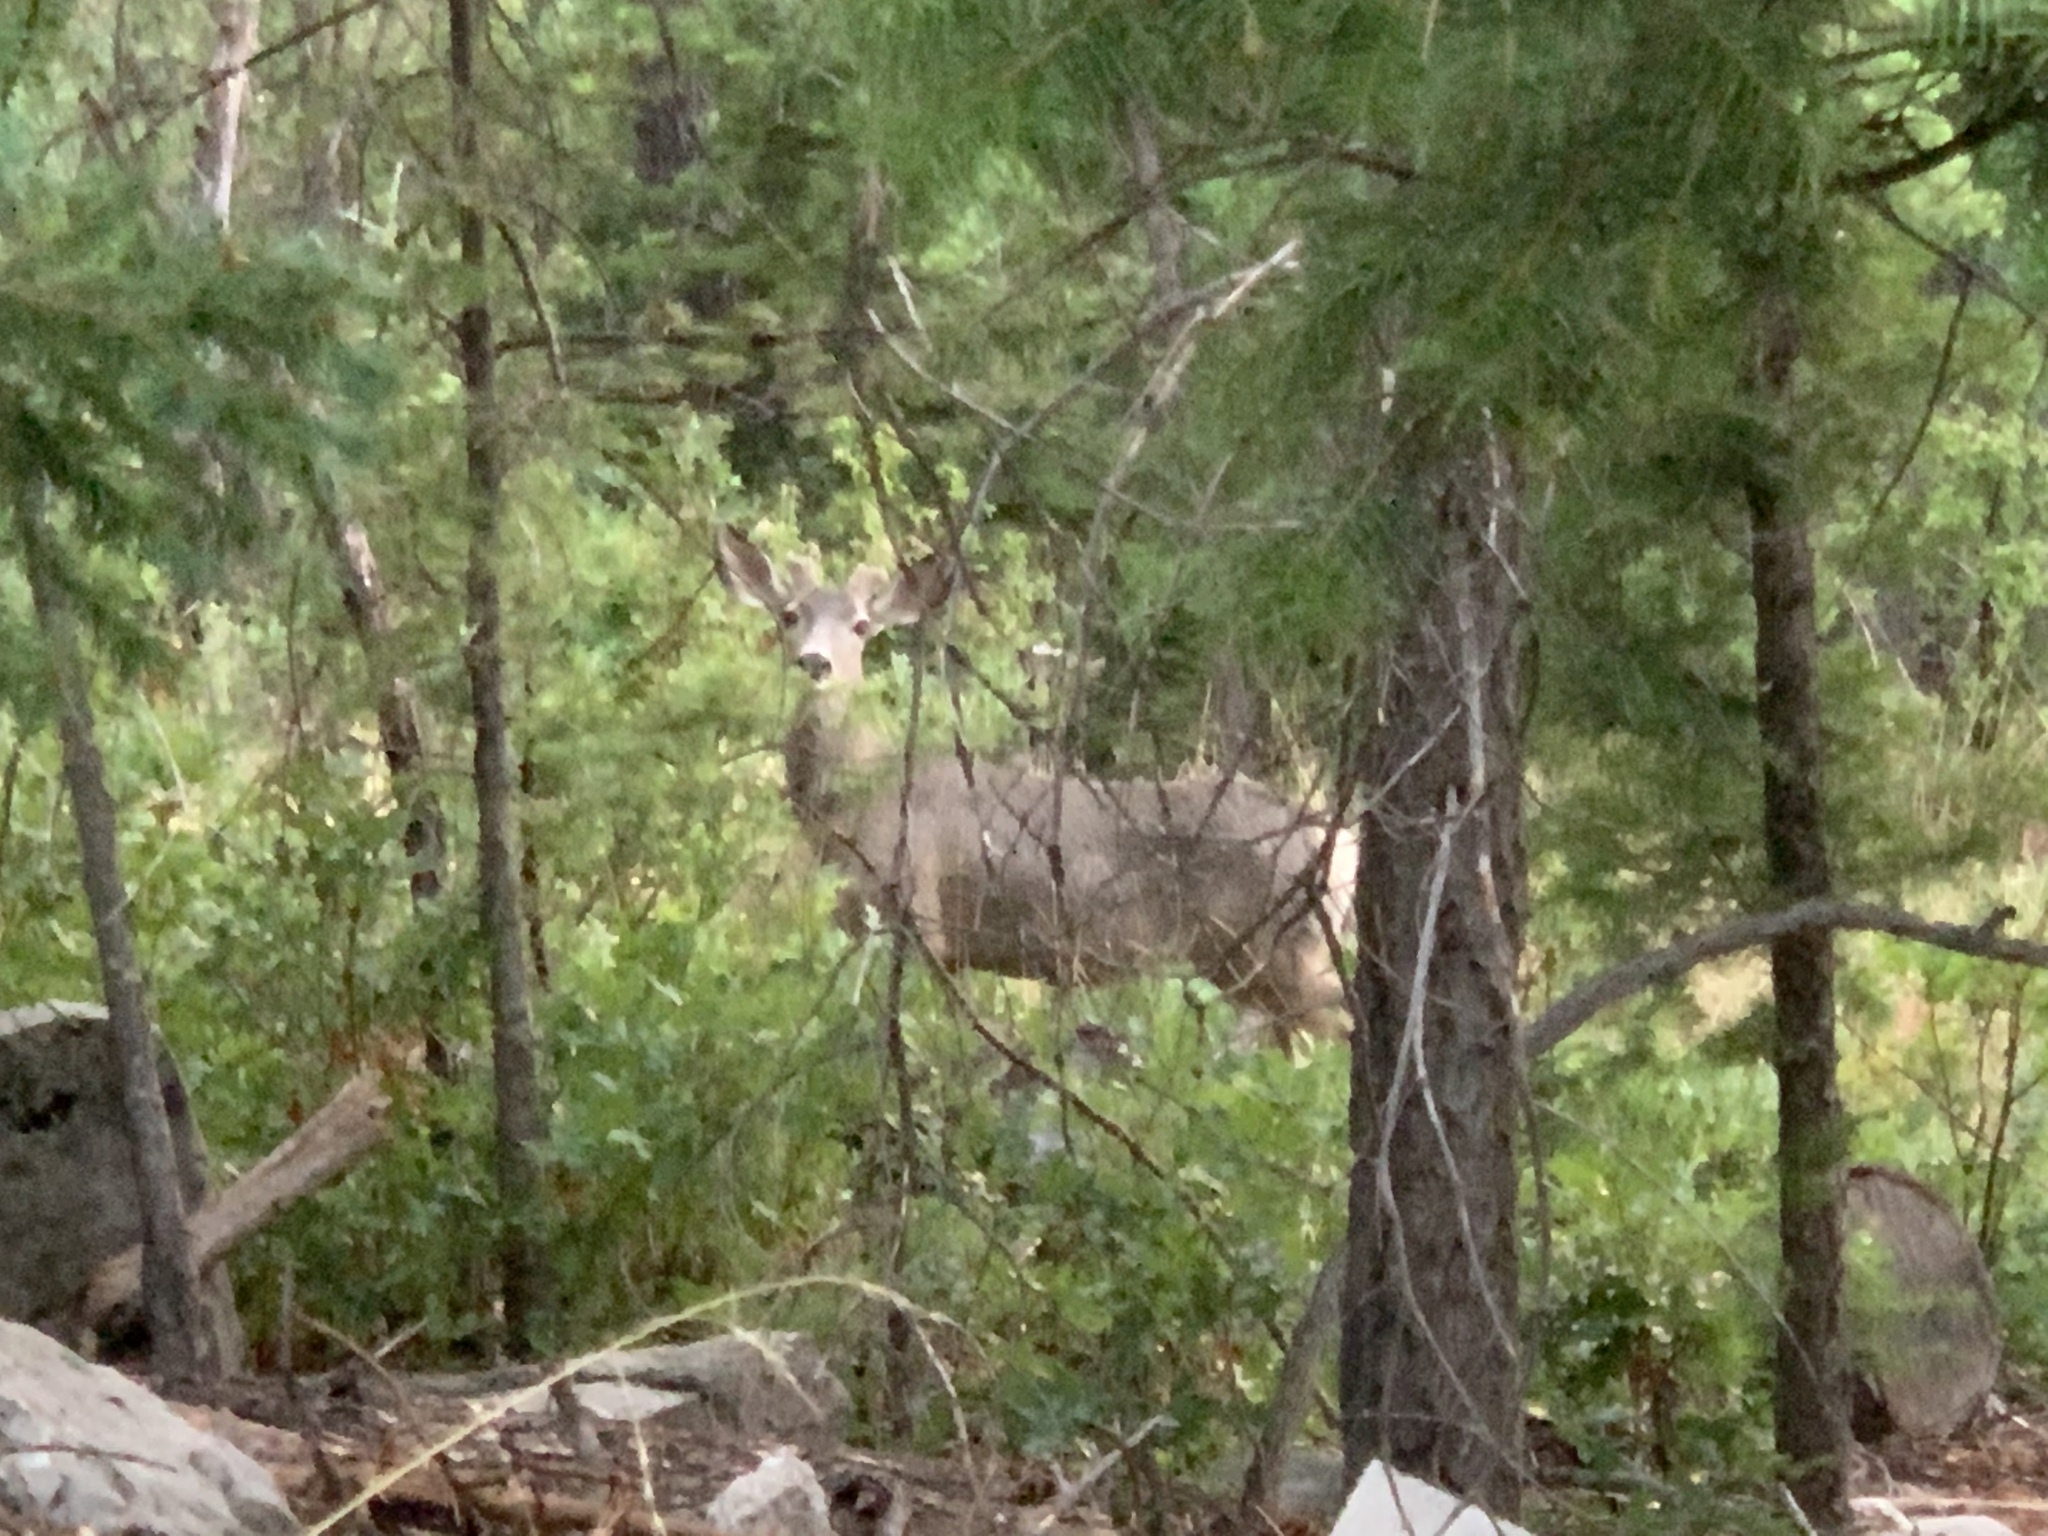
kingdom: Animalia
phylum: Chordata
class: Mammalia
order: Artiodactyla
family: Cervidae
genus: Odocoileus
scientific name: Odocoileus hemionus
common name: Mule deer
